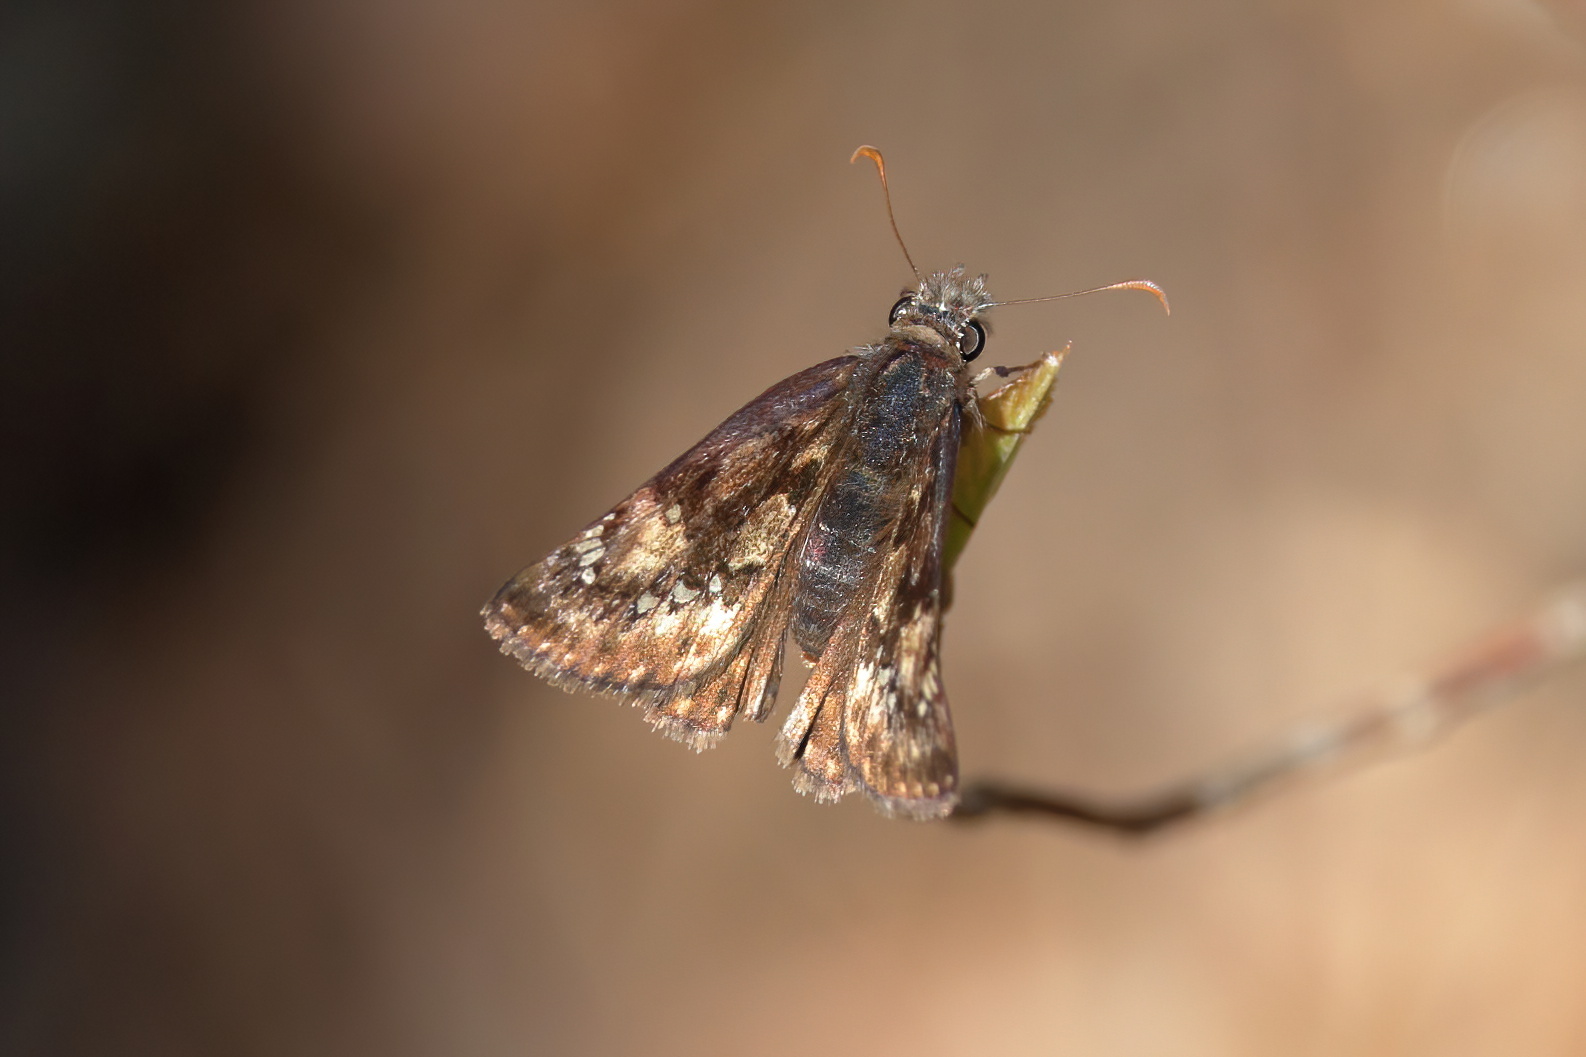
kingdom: Animalia
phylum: Arthropoda
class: Insecta
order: Lepidoptera
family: Hesperiidae
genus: Erynnis
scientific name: Erynnis juvenalis
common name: Juvenal's duskywing
